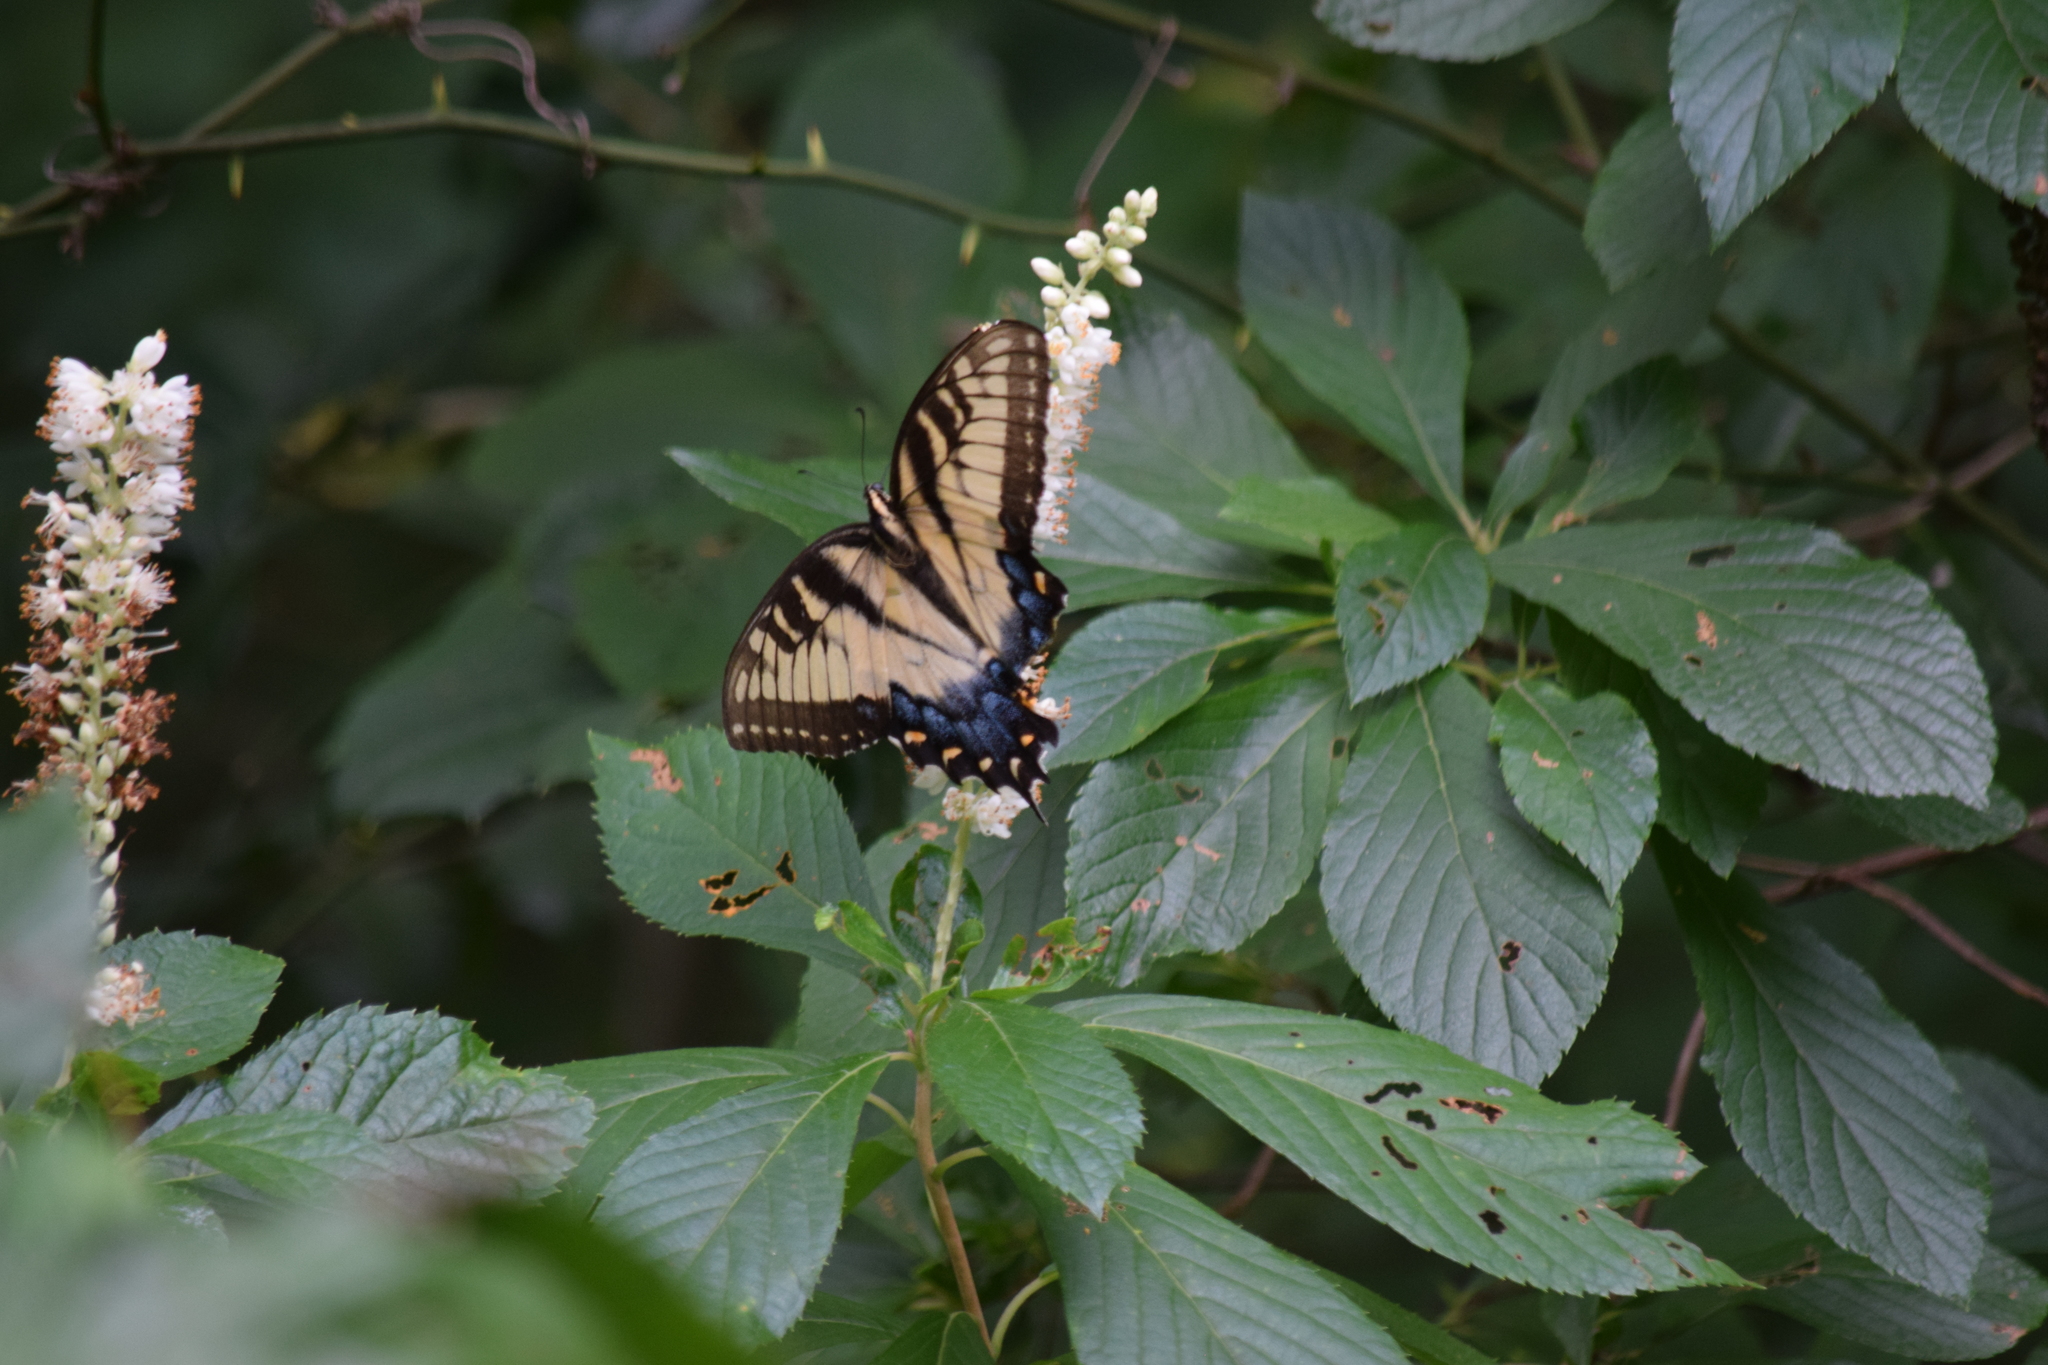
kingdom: Animalia
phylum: Arthropoda
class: Insecta
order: Lepidoptera
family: Papilionidae
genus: Papilio
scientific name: Papilio glaucus
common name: Tiger swallowtail
